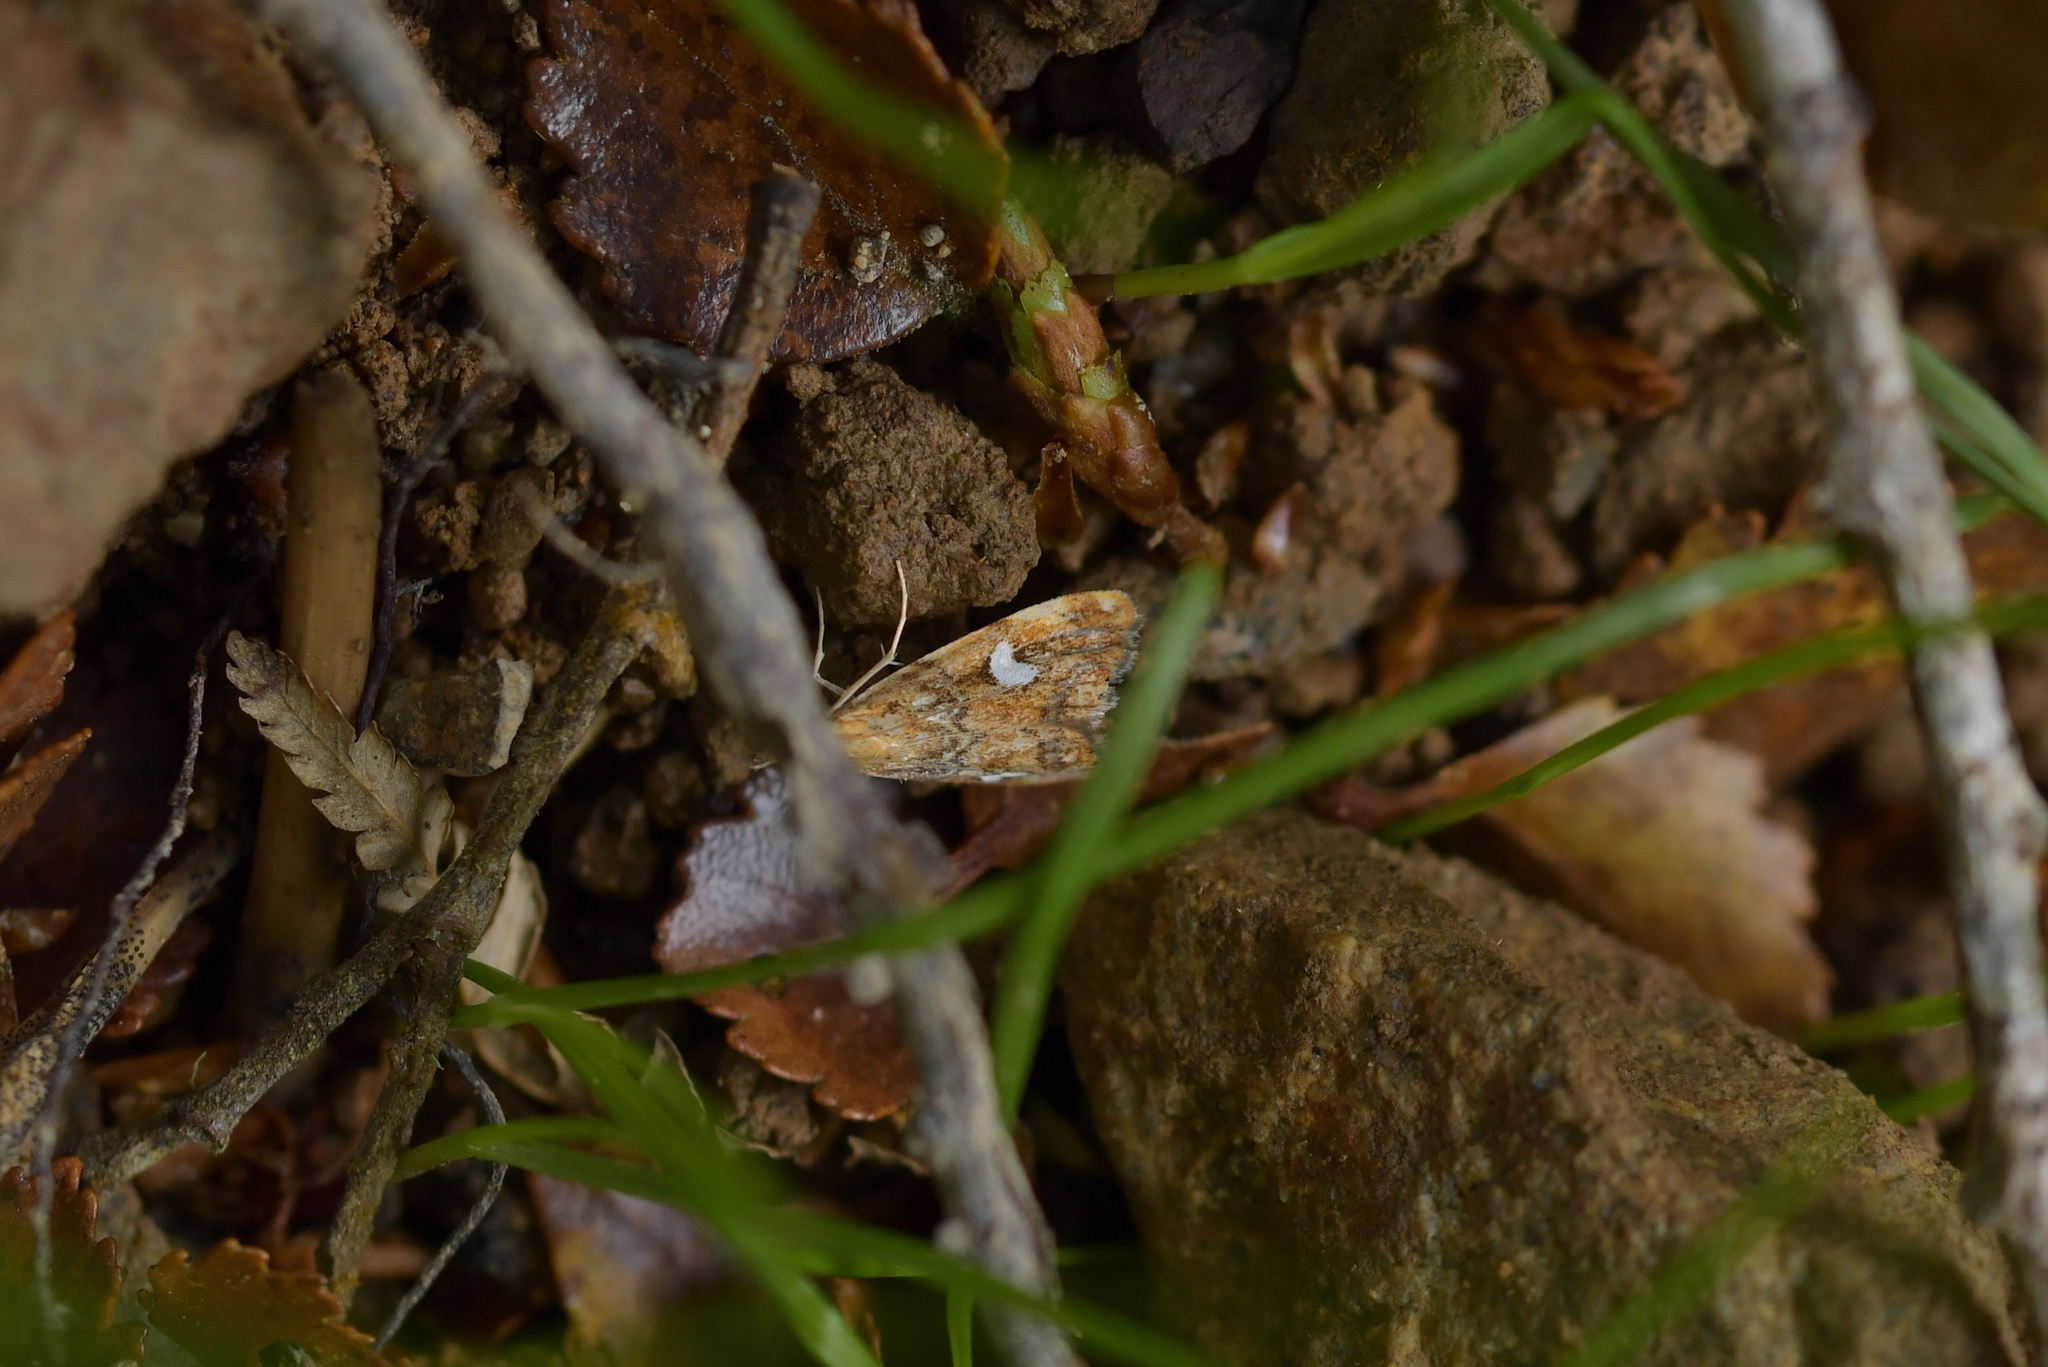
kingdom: Animalia
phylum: Arthropoda
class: Insecta
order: Lepidoptera
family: Crambidae
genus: Glaucocharis
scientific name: Glaucocharis leucoxantha
